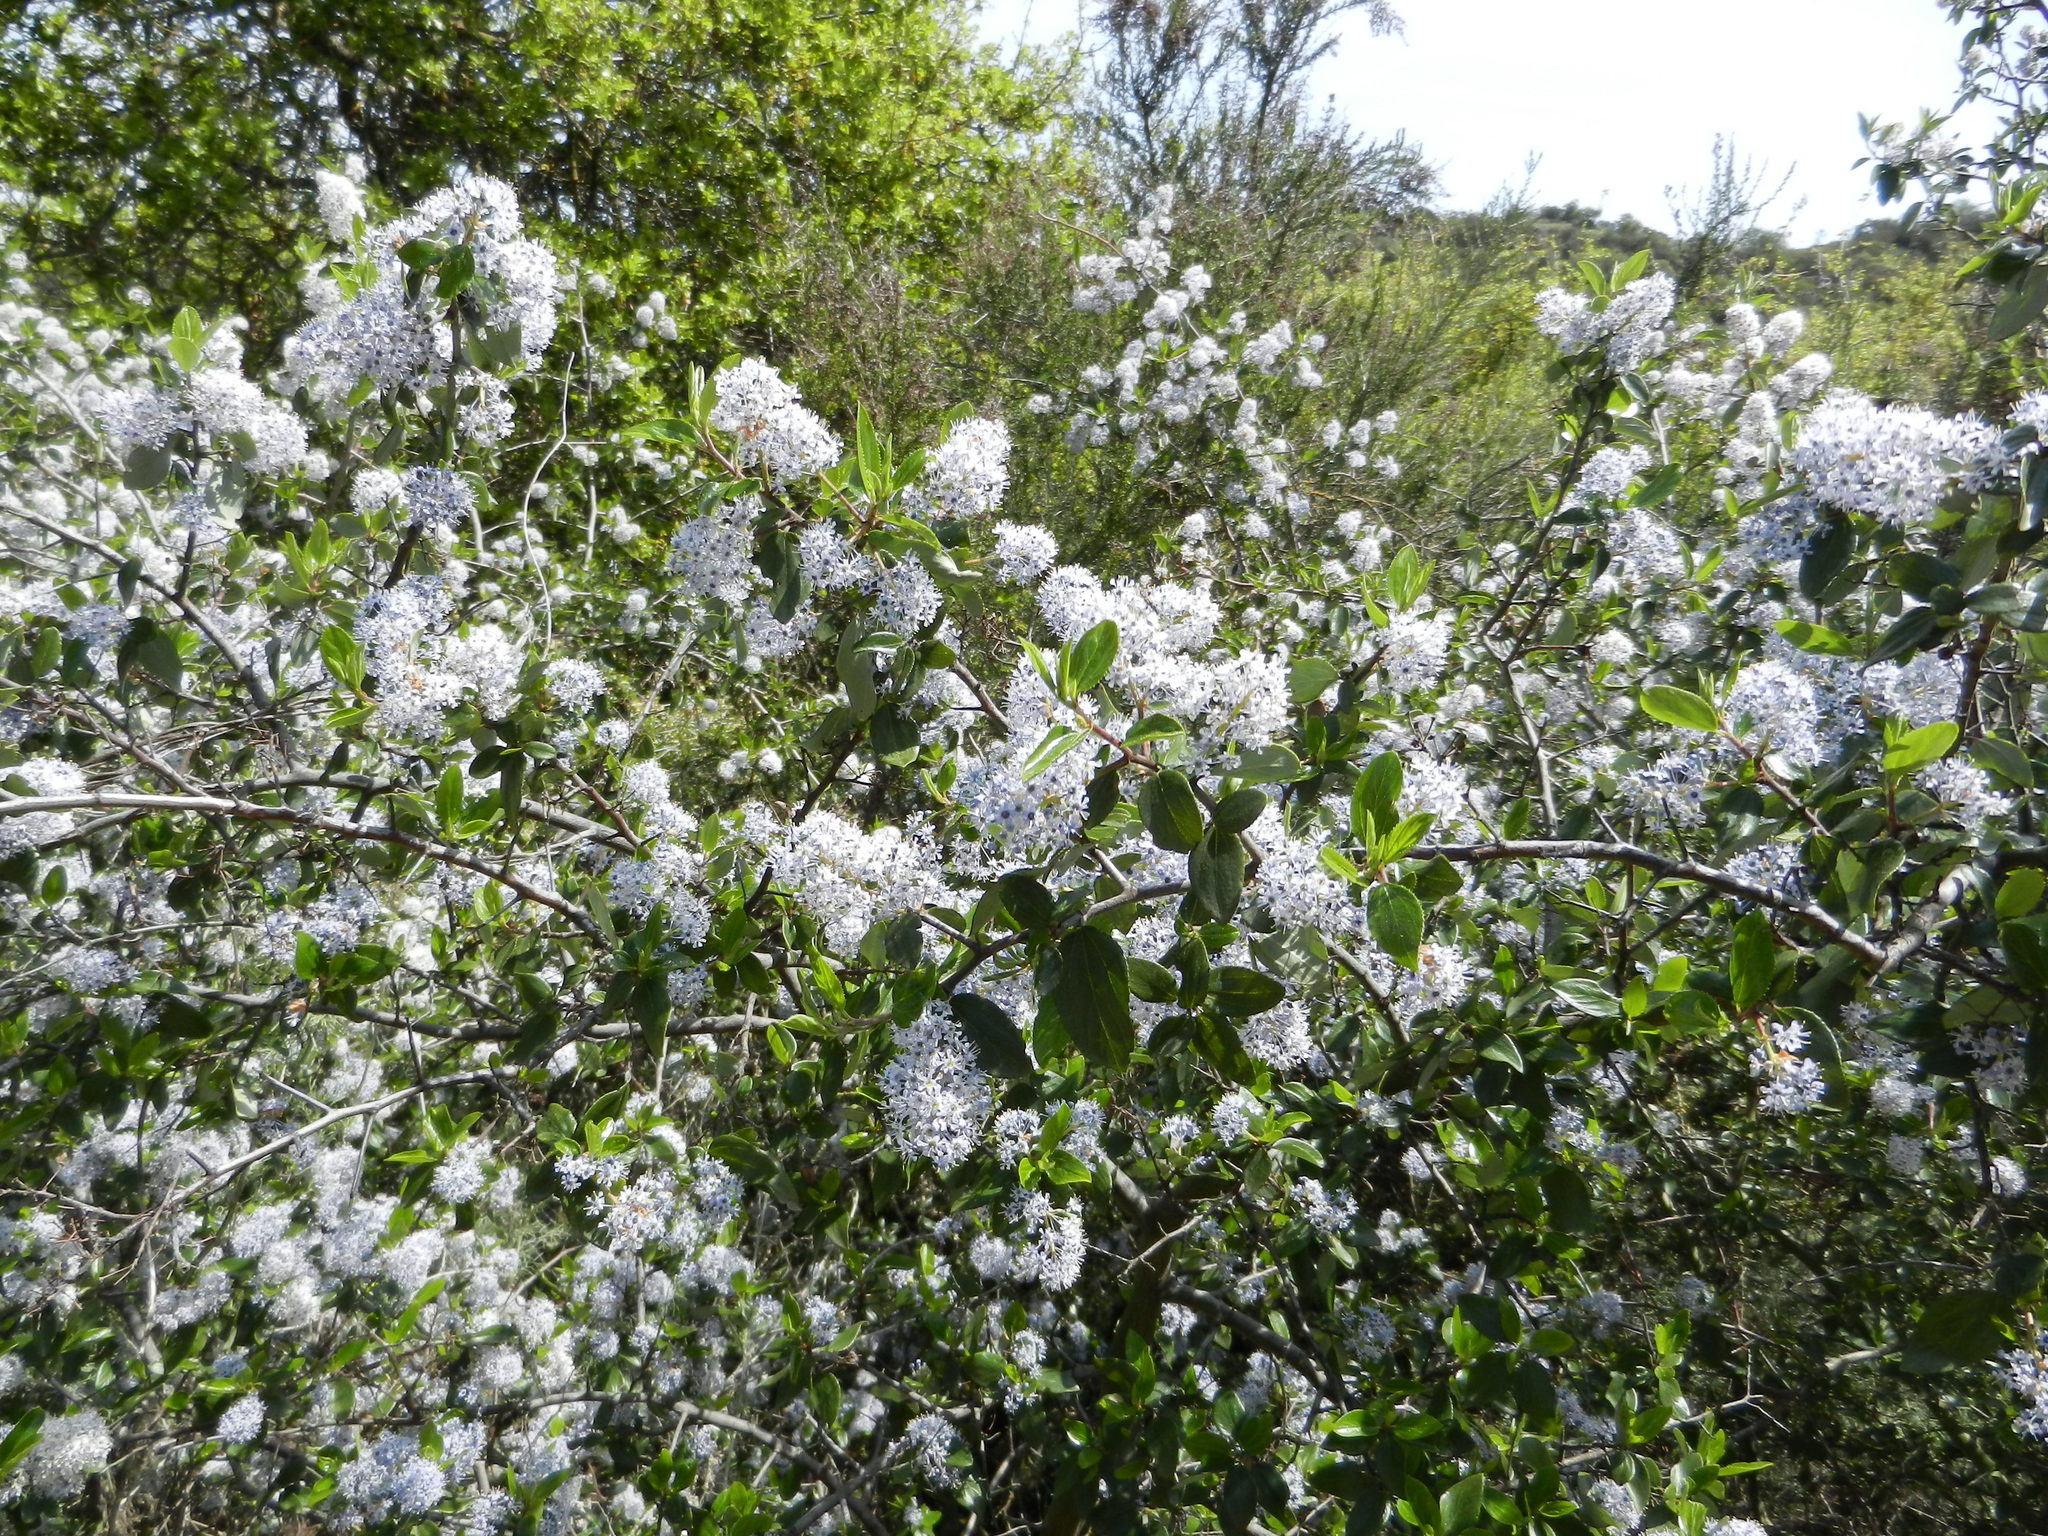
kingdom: Plantae
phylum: Tracheophyta
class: Magnoliopsida
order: Rosales
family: Rhamnaceae
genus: Ceanothus
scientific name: Ceanothus sorediatus
